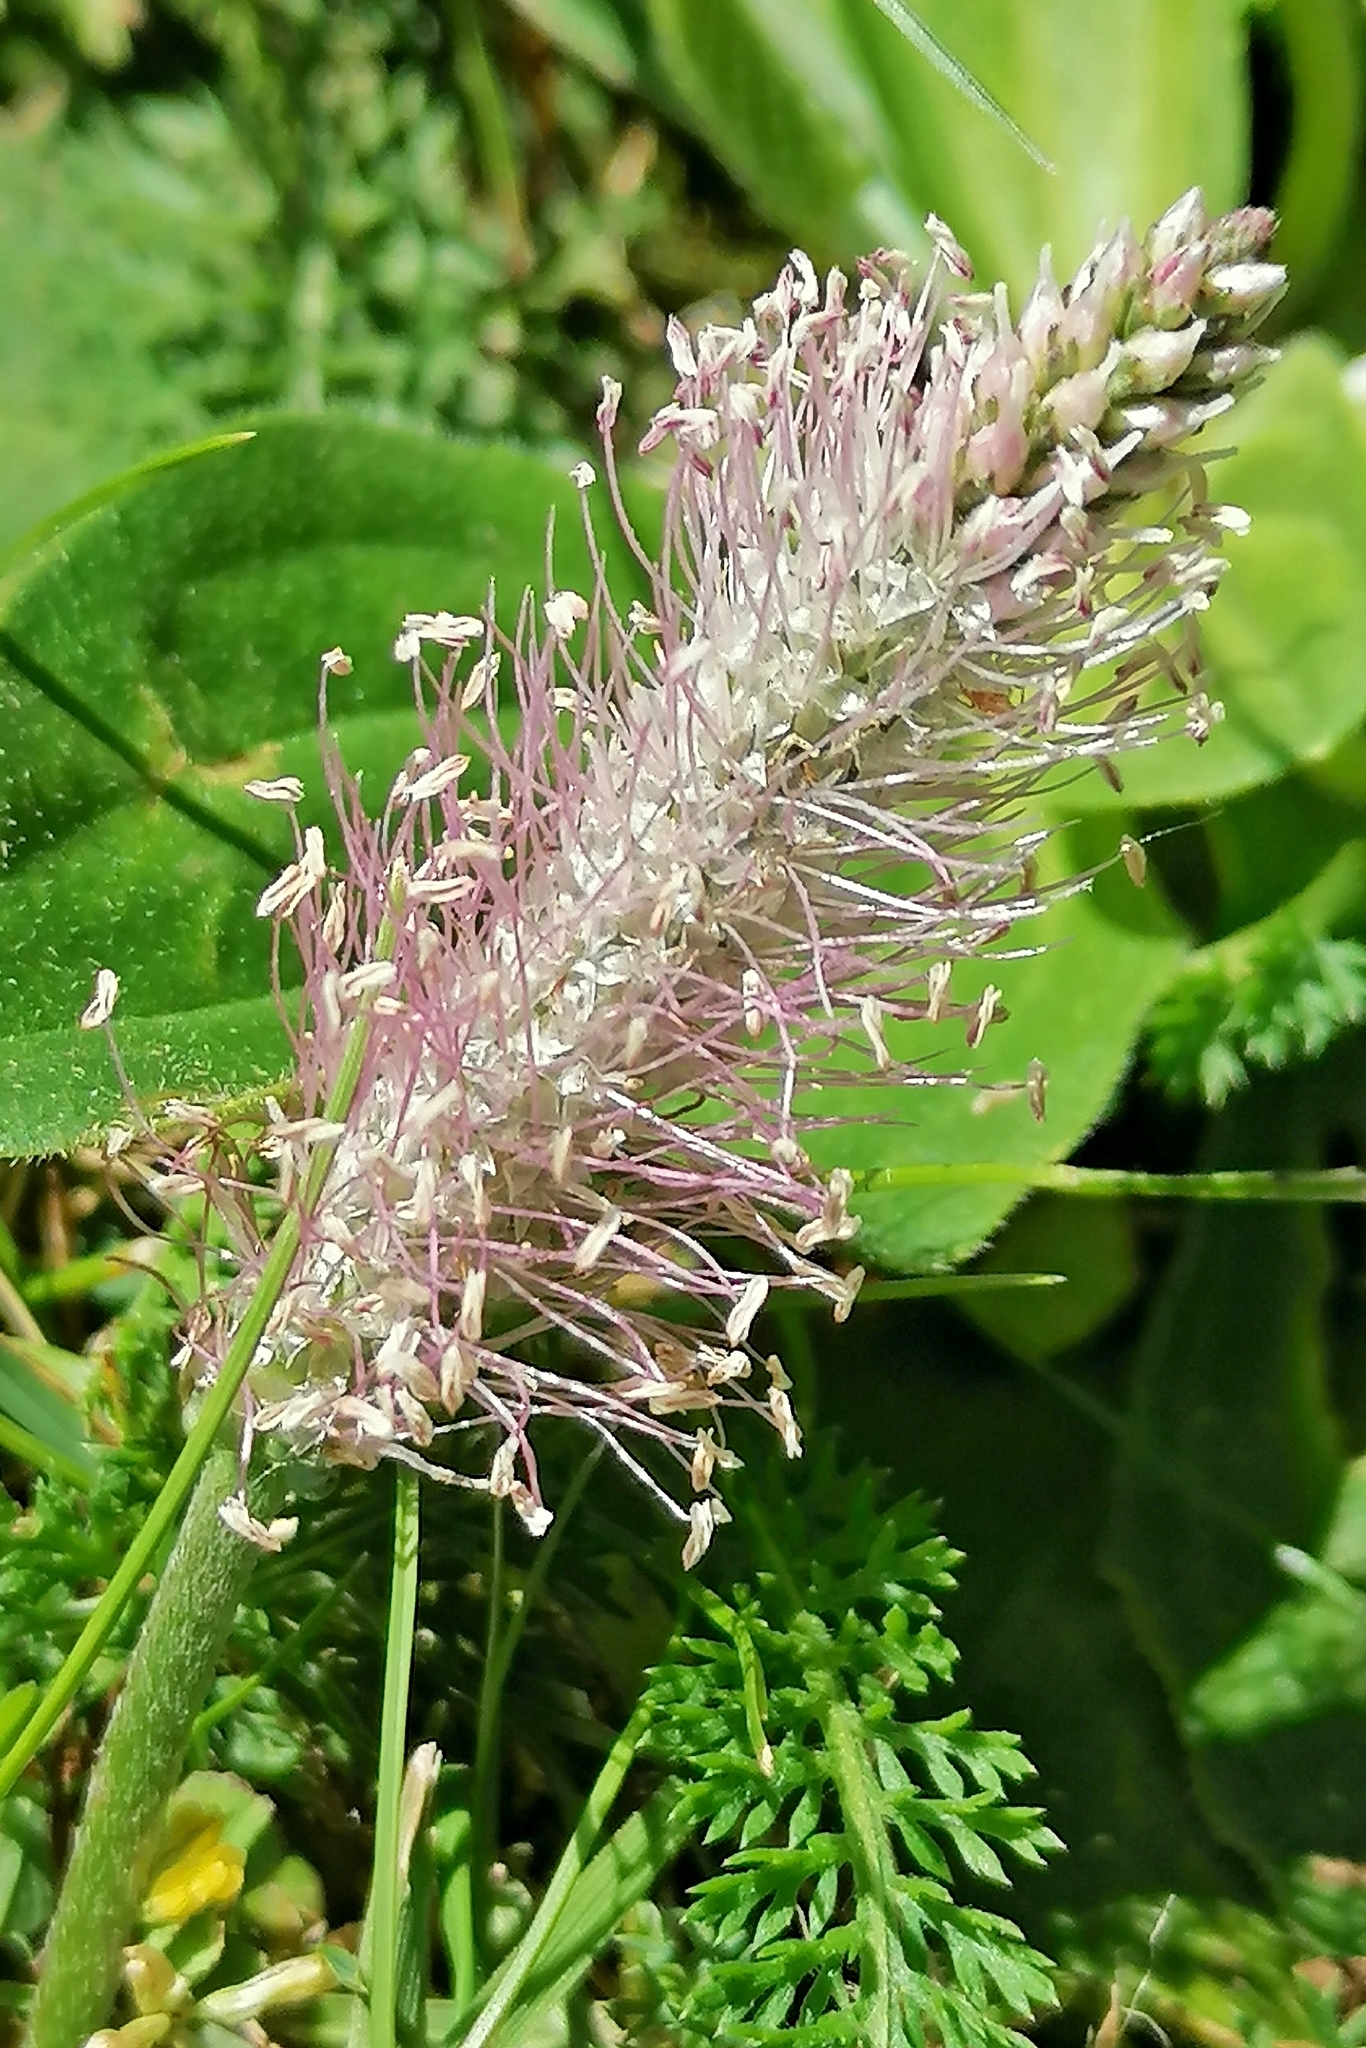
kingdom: Plantae
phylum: Tracheophyta
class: Magnoliopsida
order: Lamiales
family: Plantaginaceae
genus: Plantago
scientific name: Plantago media
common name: Hoary plantain
